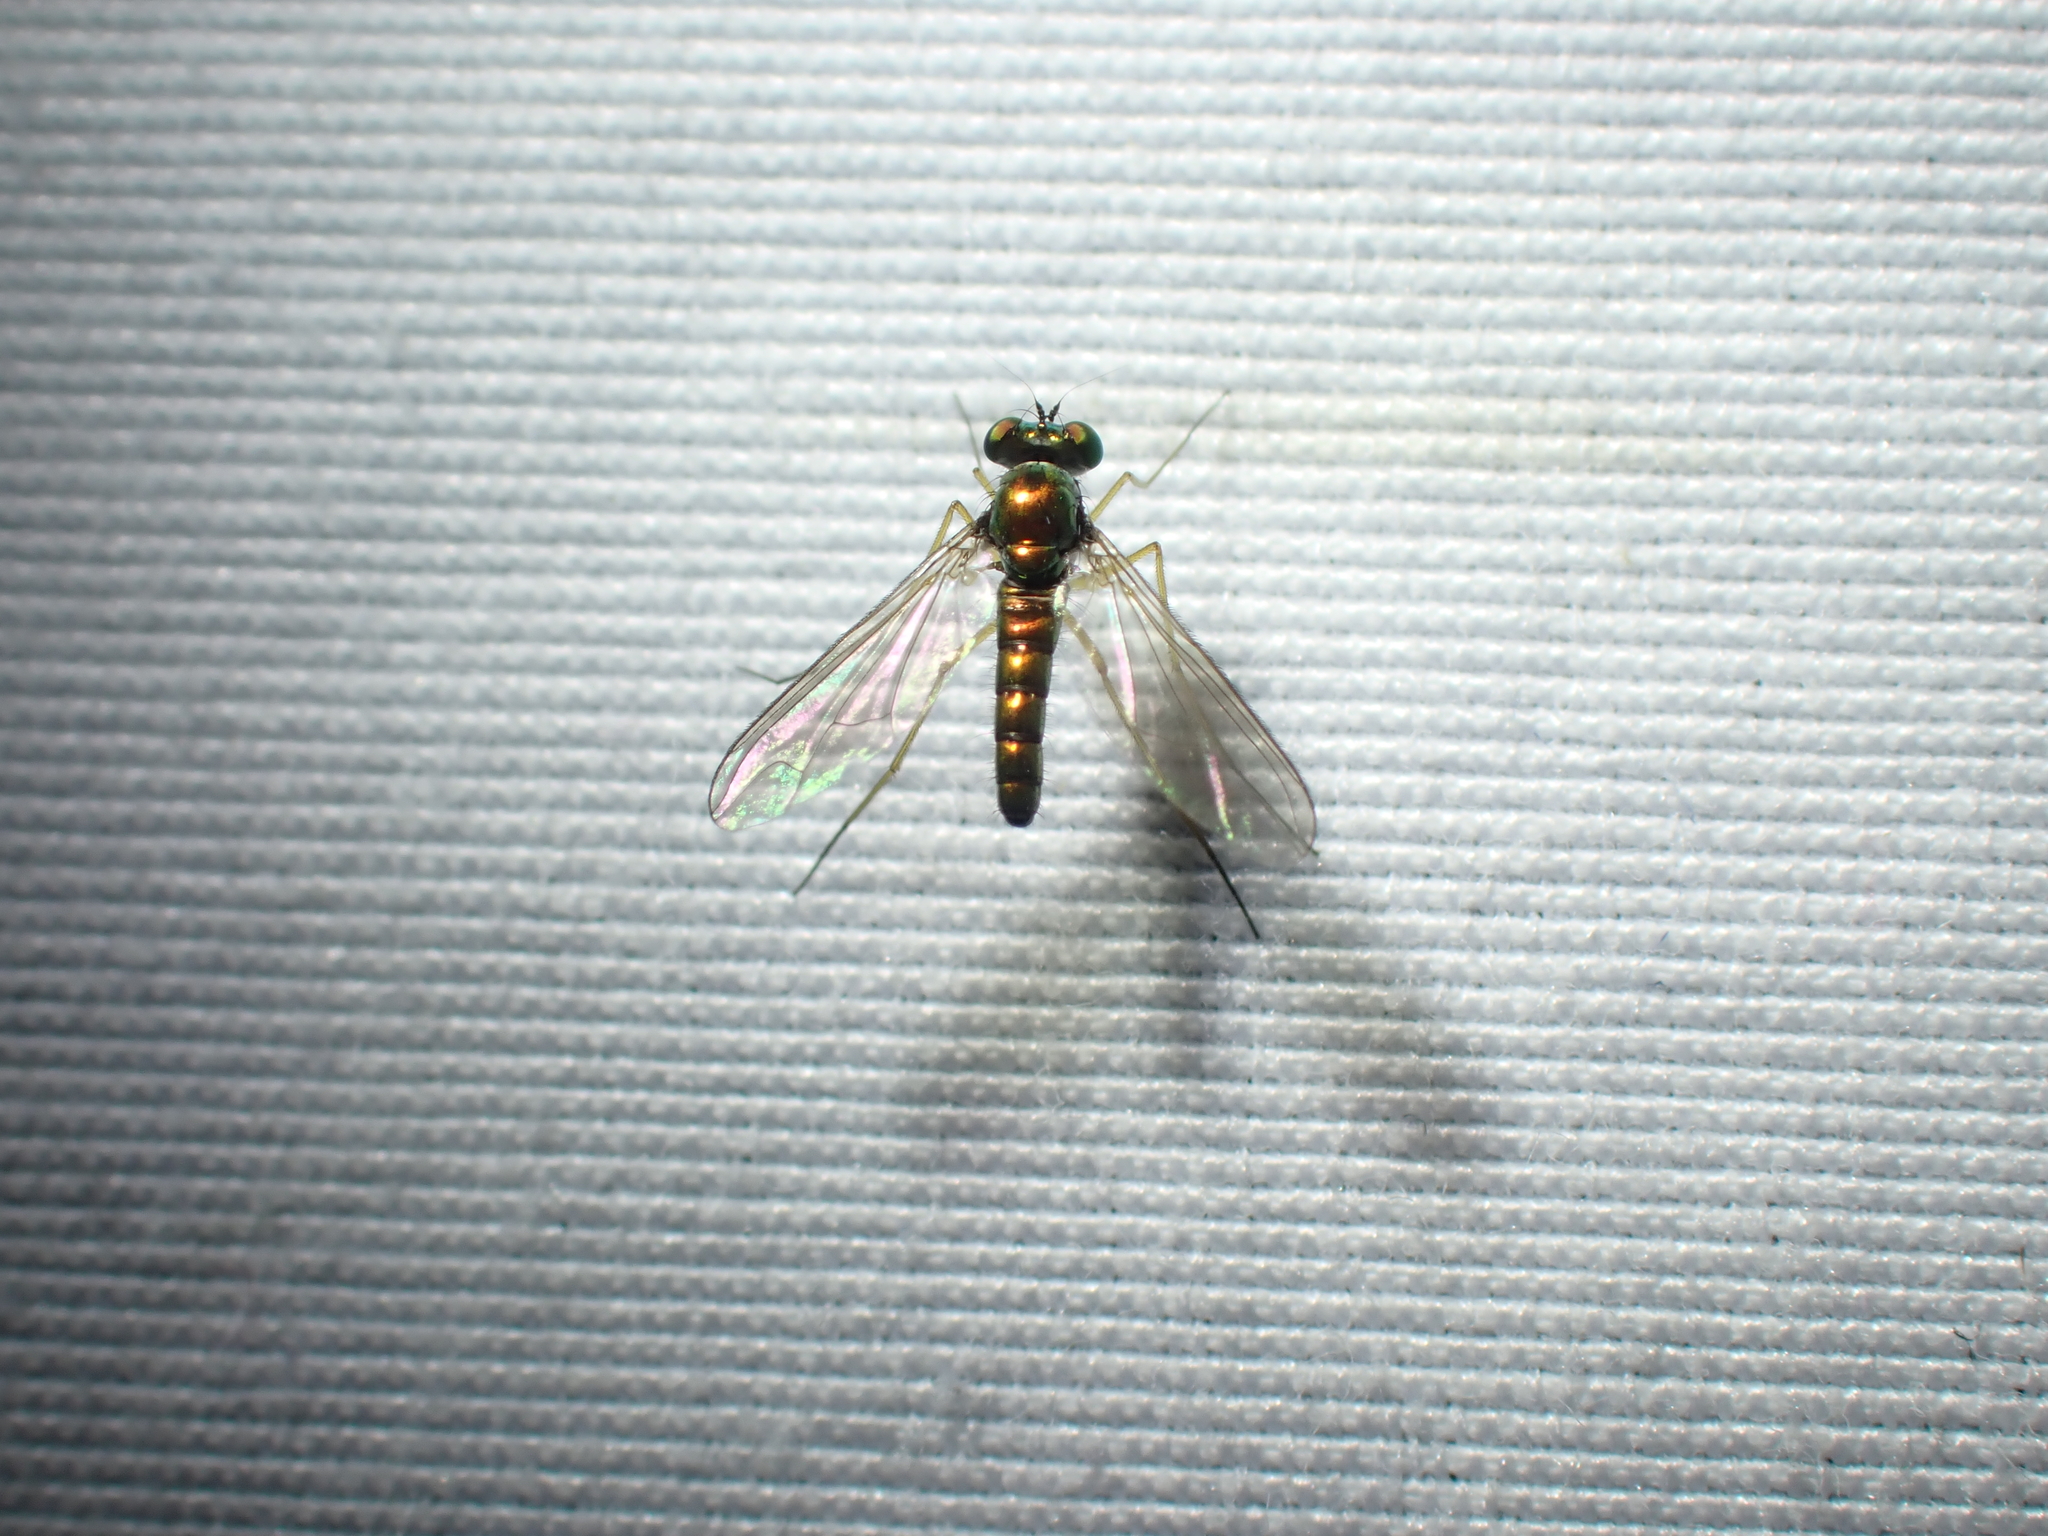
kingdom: Animalia
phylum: Arthropoda
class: Insecta
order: Diptera
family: Dolichopodidae
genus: Amblypsilopus
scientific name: Amblypsilopus scintillans
